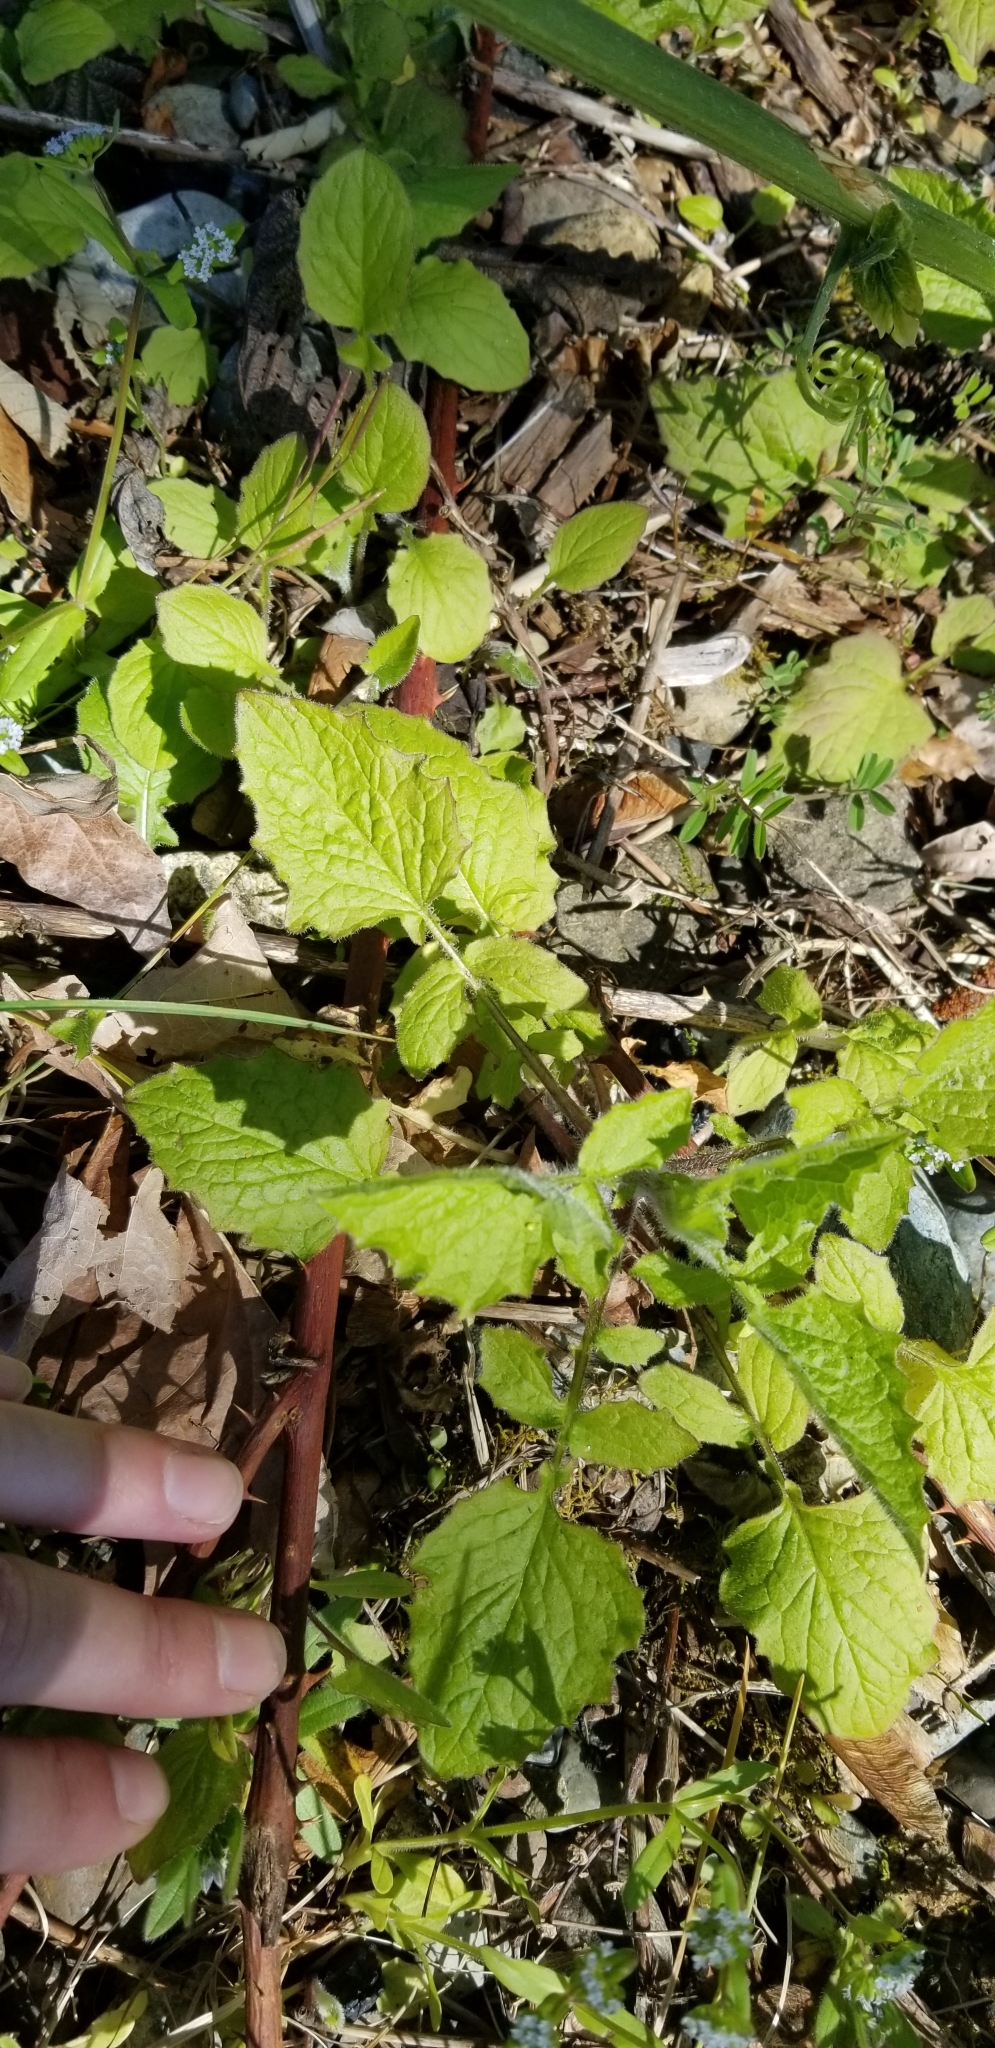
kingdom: Plantae
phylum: Tracheophyta
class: Magnoliopsida
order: Asterales
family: Asteraceae
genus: Lapsana
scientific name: Lapsana communis
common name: Nipplewort
